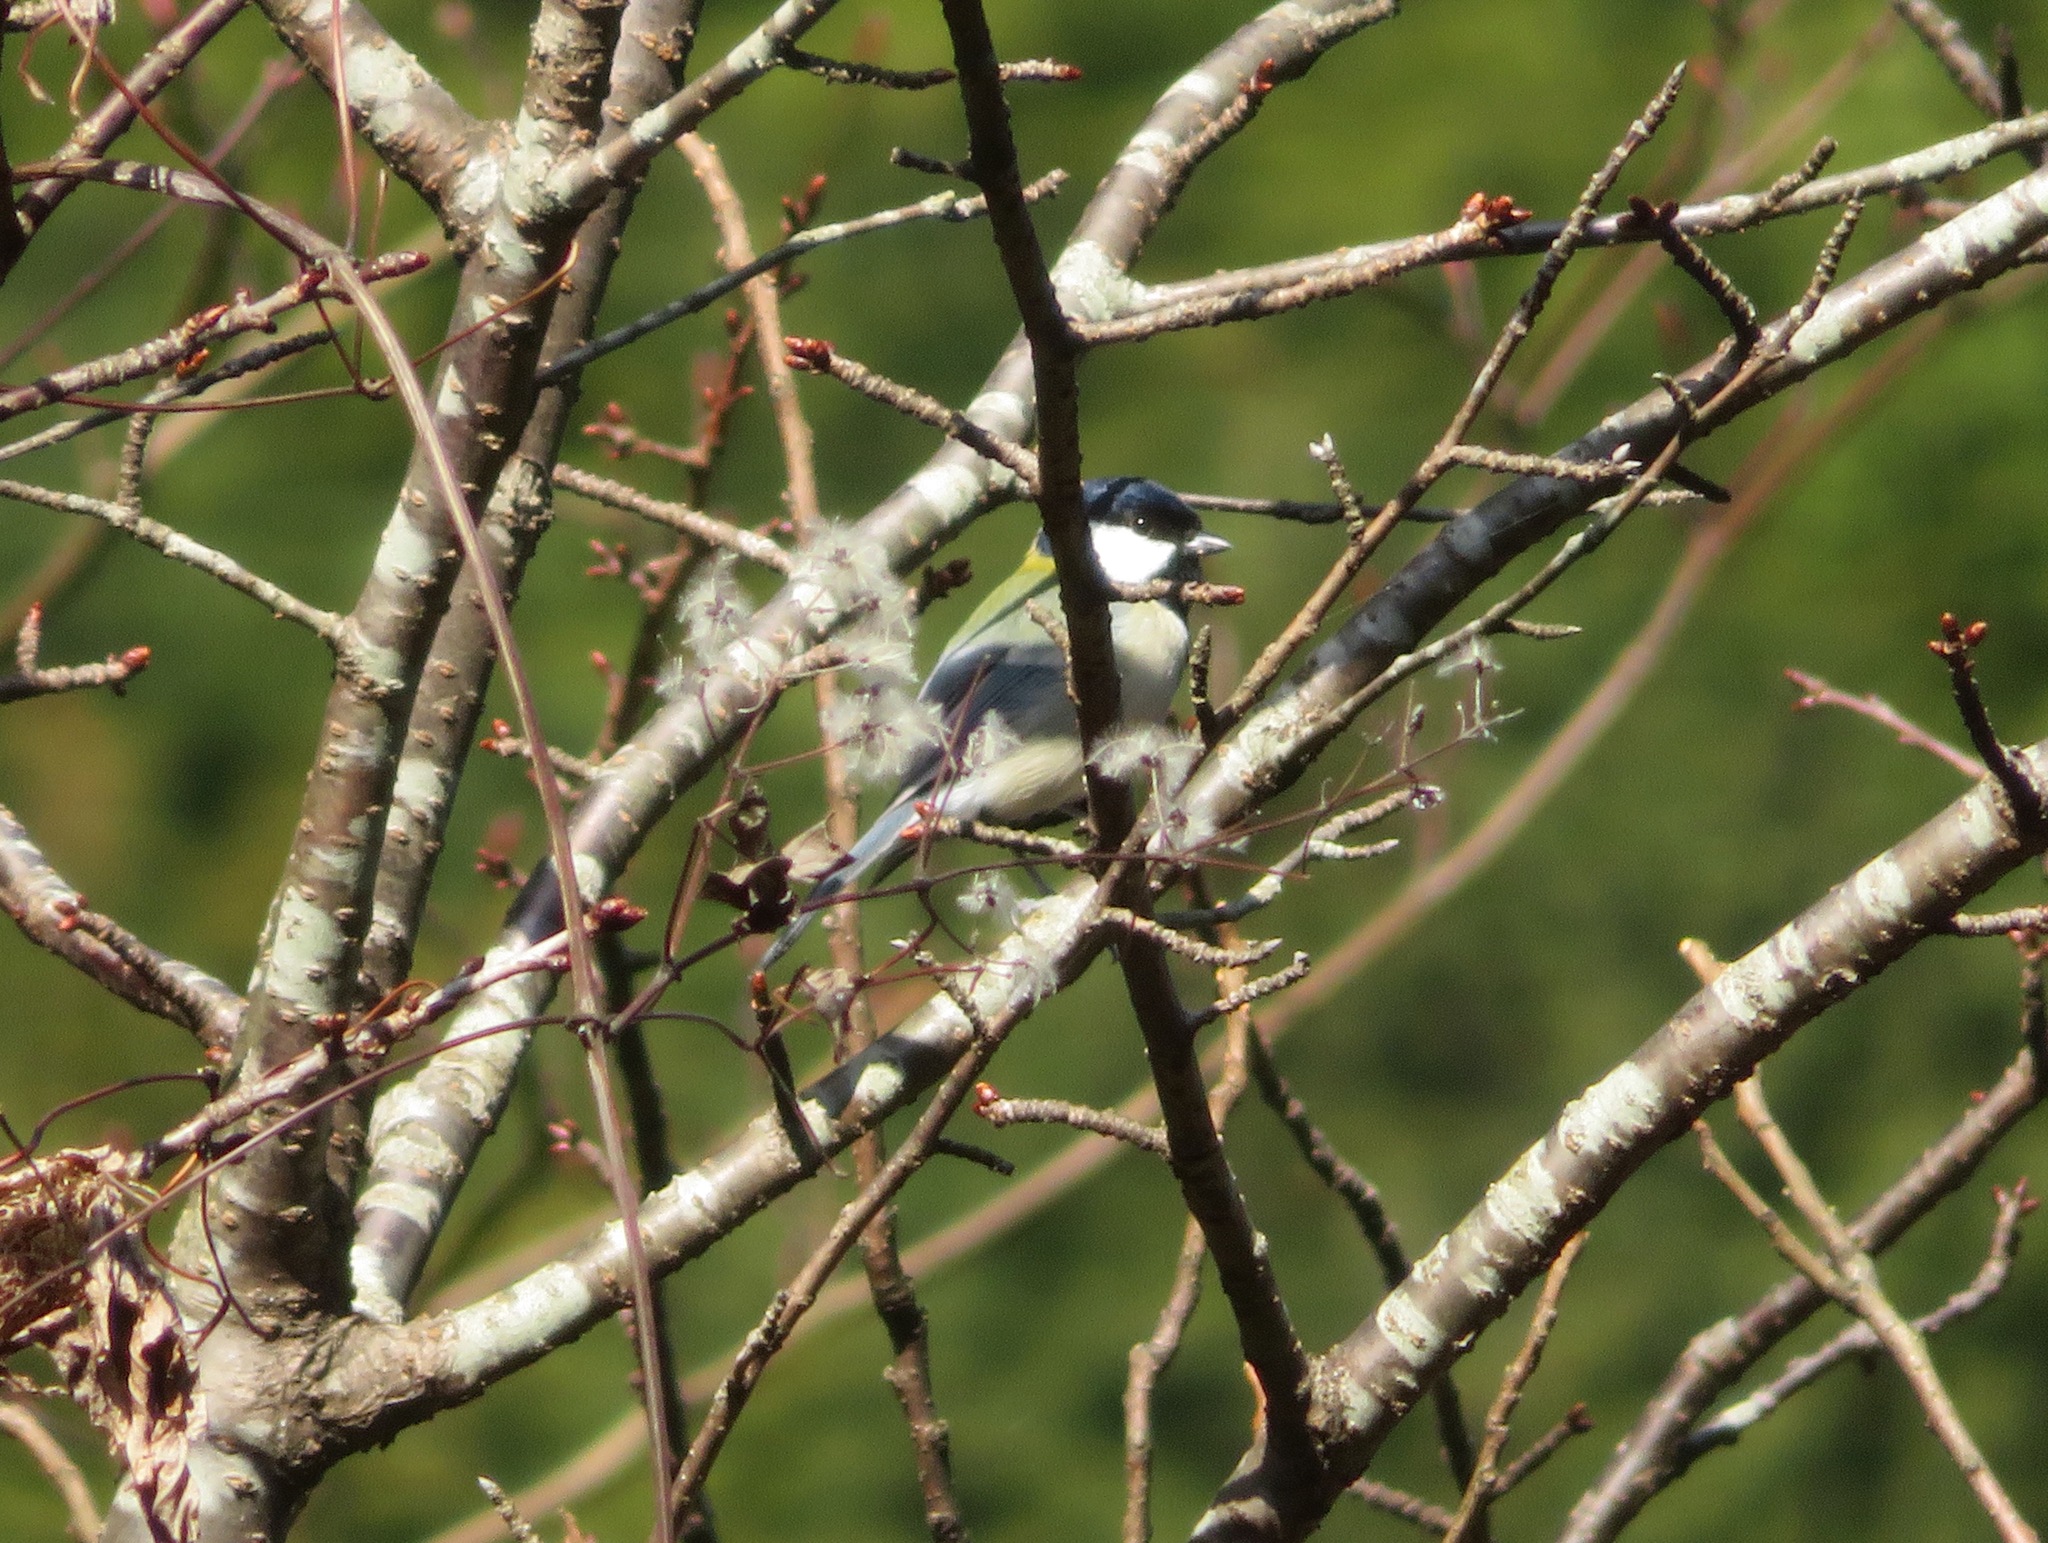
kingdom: Animalia
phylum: Chordata
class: Aves
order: Passeriformes
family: Paridae
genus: Parus
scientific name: Parus minor
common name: Japanese tit
